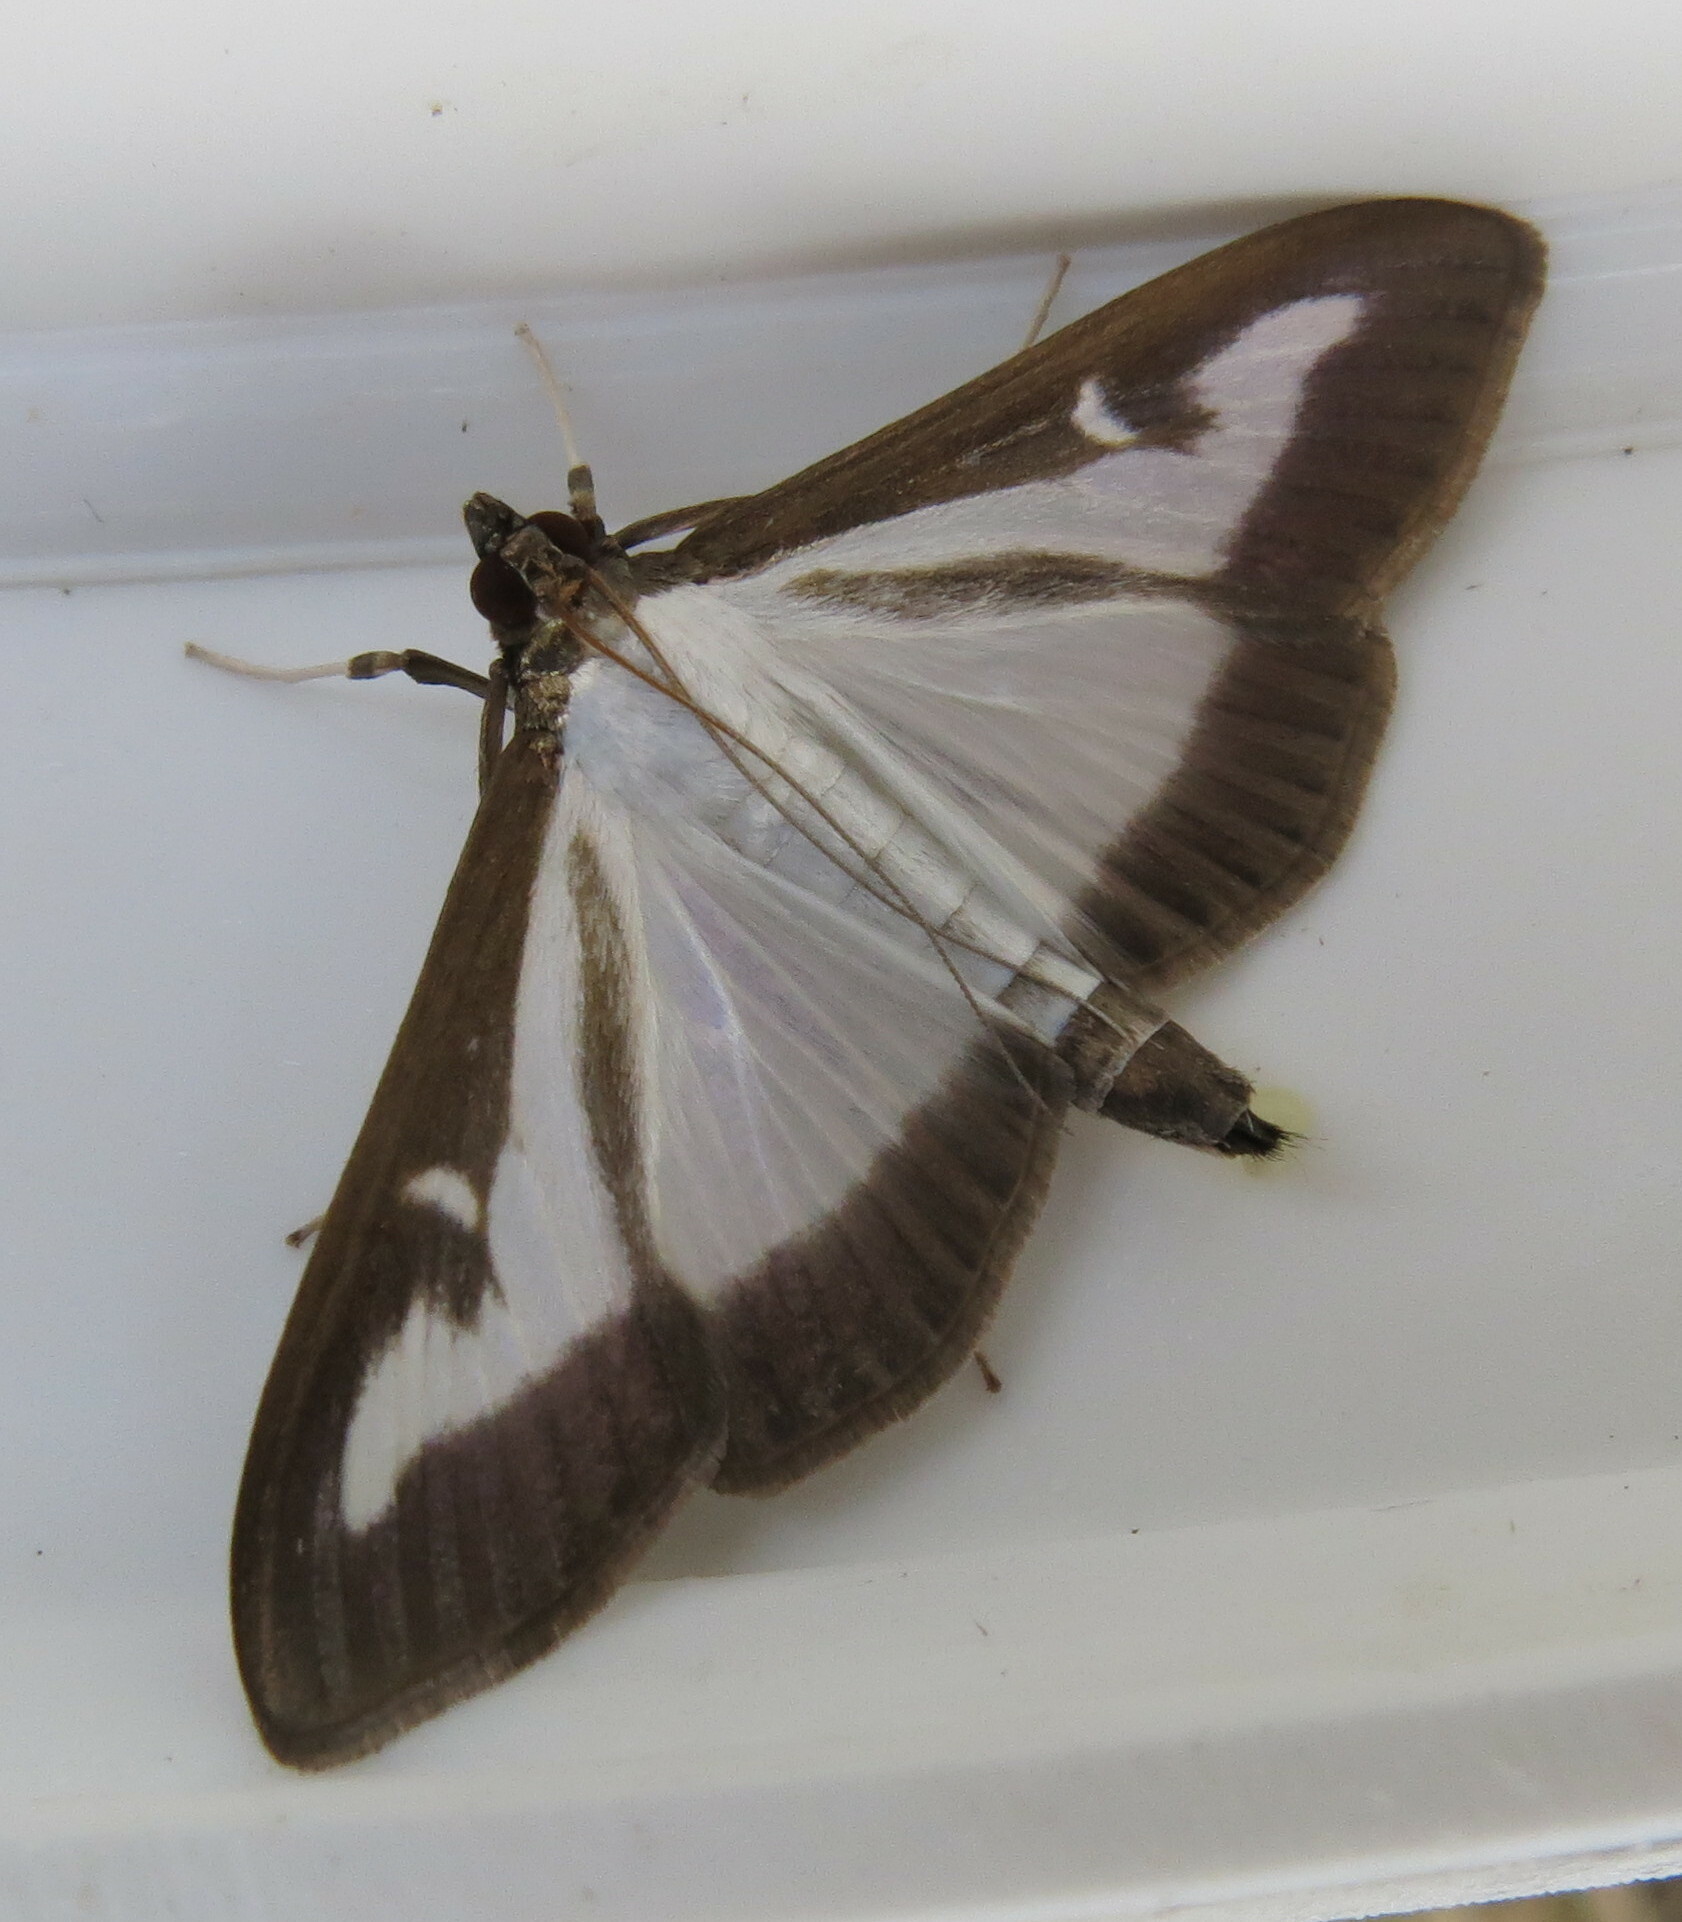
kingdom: Animalia
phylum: Arthropoda
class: Insecta
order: Lepidoptera
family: Crambidae
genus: Cydalima
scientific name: Cydalima perspectalis
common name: Box tree moth
